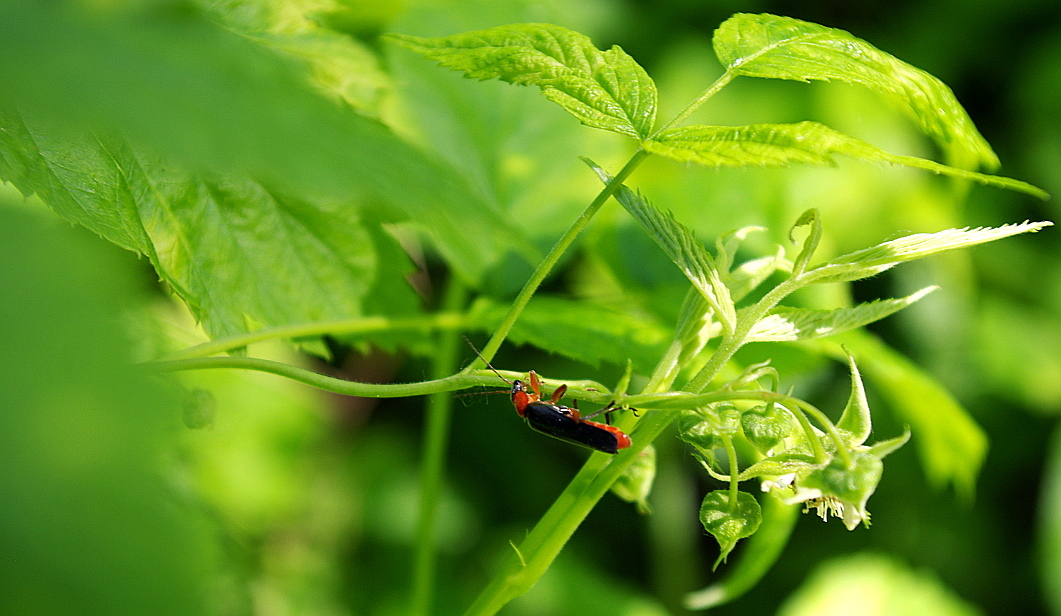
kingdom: Plantae
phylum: Tracheophyta
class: Magnoliopsida
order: Rosales
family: Rosaceae
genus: Rubus
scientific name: Rubus idaeus
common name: Raspberry
